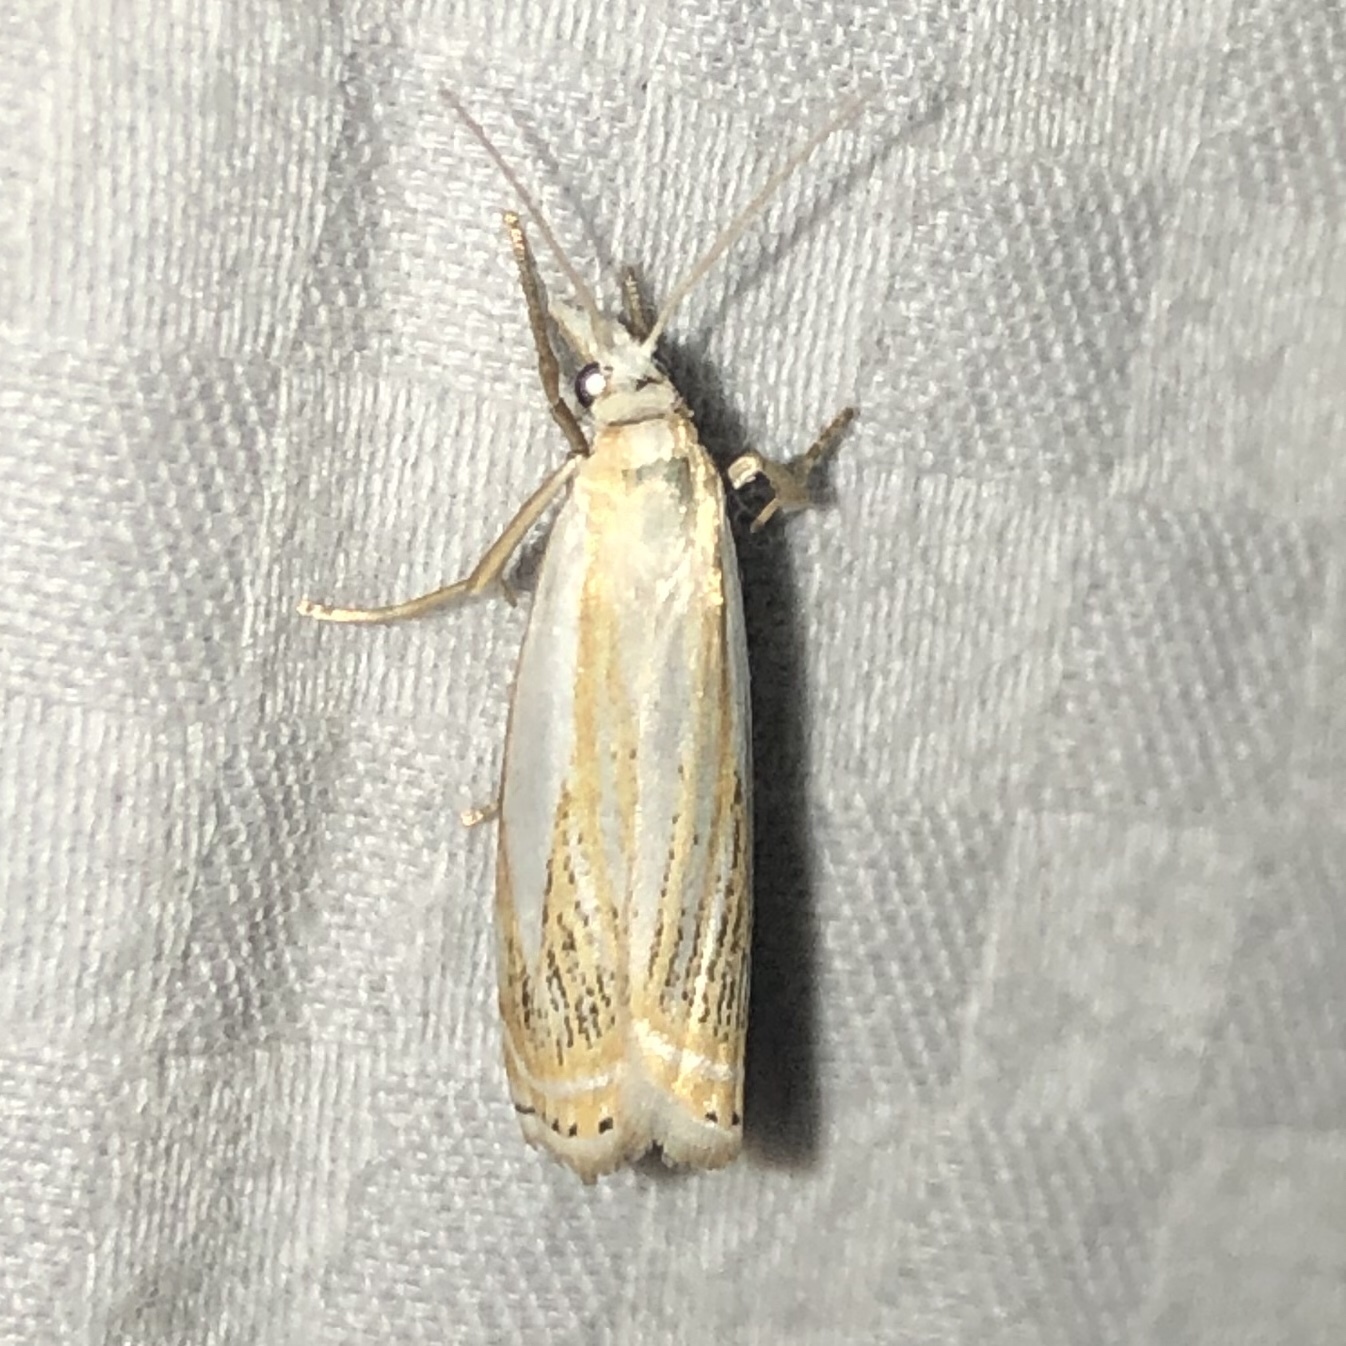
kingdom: Animalia
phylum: Arthropoda
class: Insecta
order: Lepidoptera
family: Crambidae
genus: Crambus
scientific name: Crambus saltuellus
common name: Pasture grass-veneer
